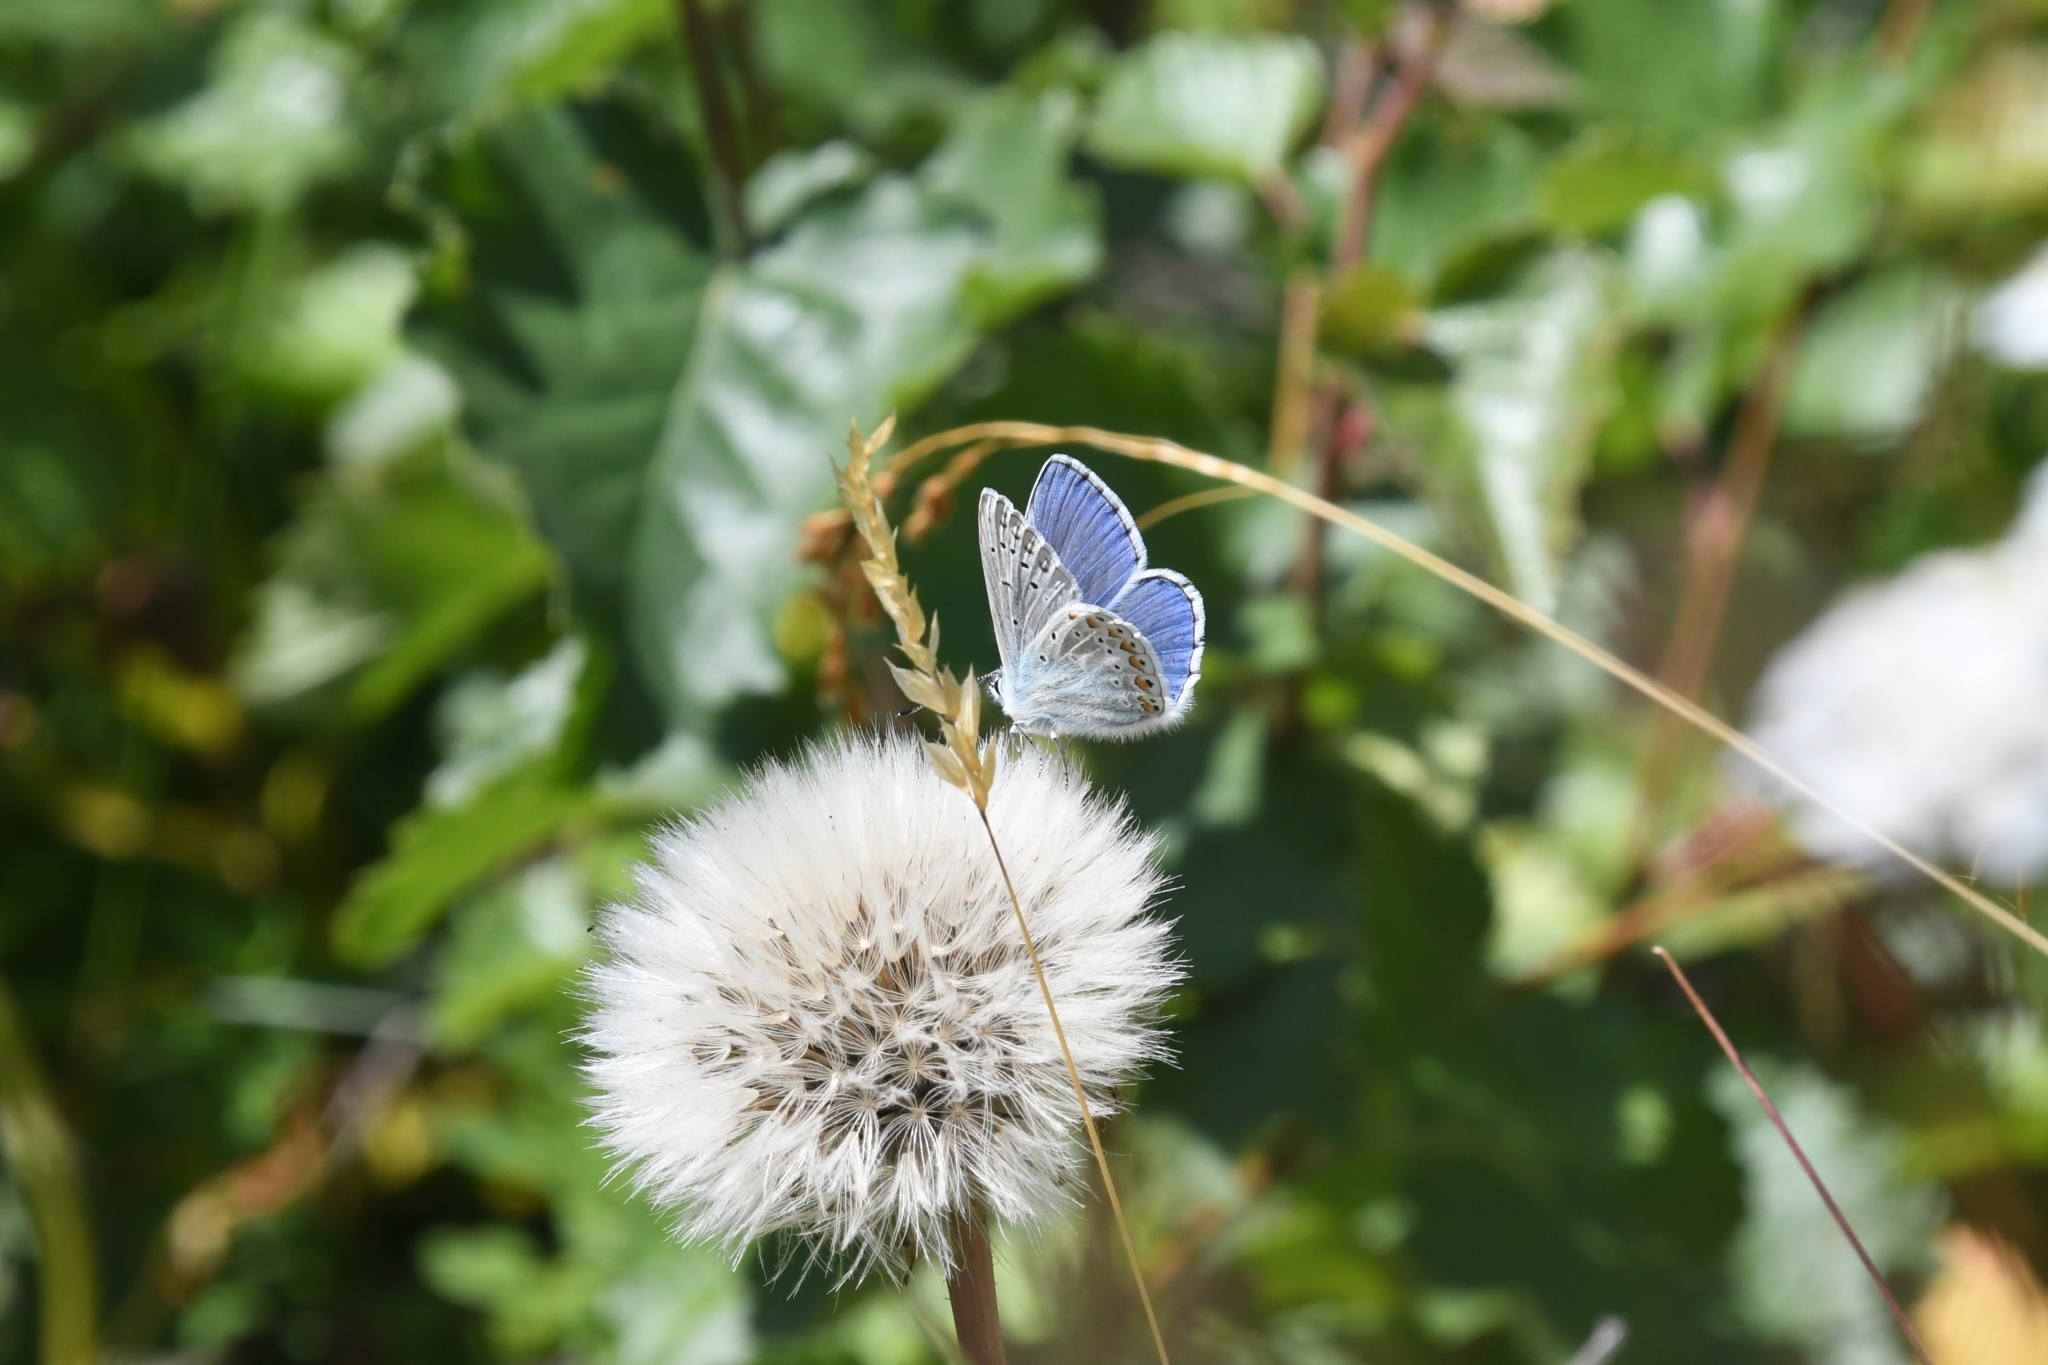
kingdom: Animalia
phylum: Arthropoda
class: Insecta
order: Lepidoptera
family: Lycaenidae
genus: Polyommatus
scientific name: Polyommatus icarus
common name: Common blue
